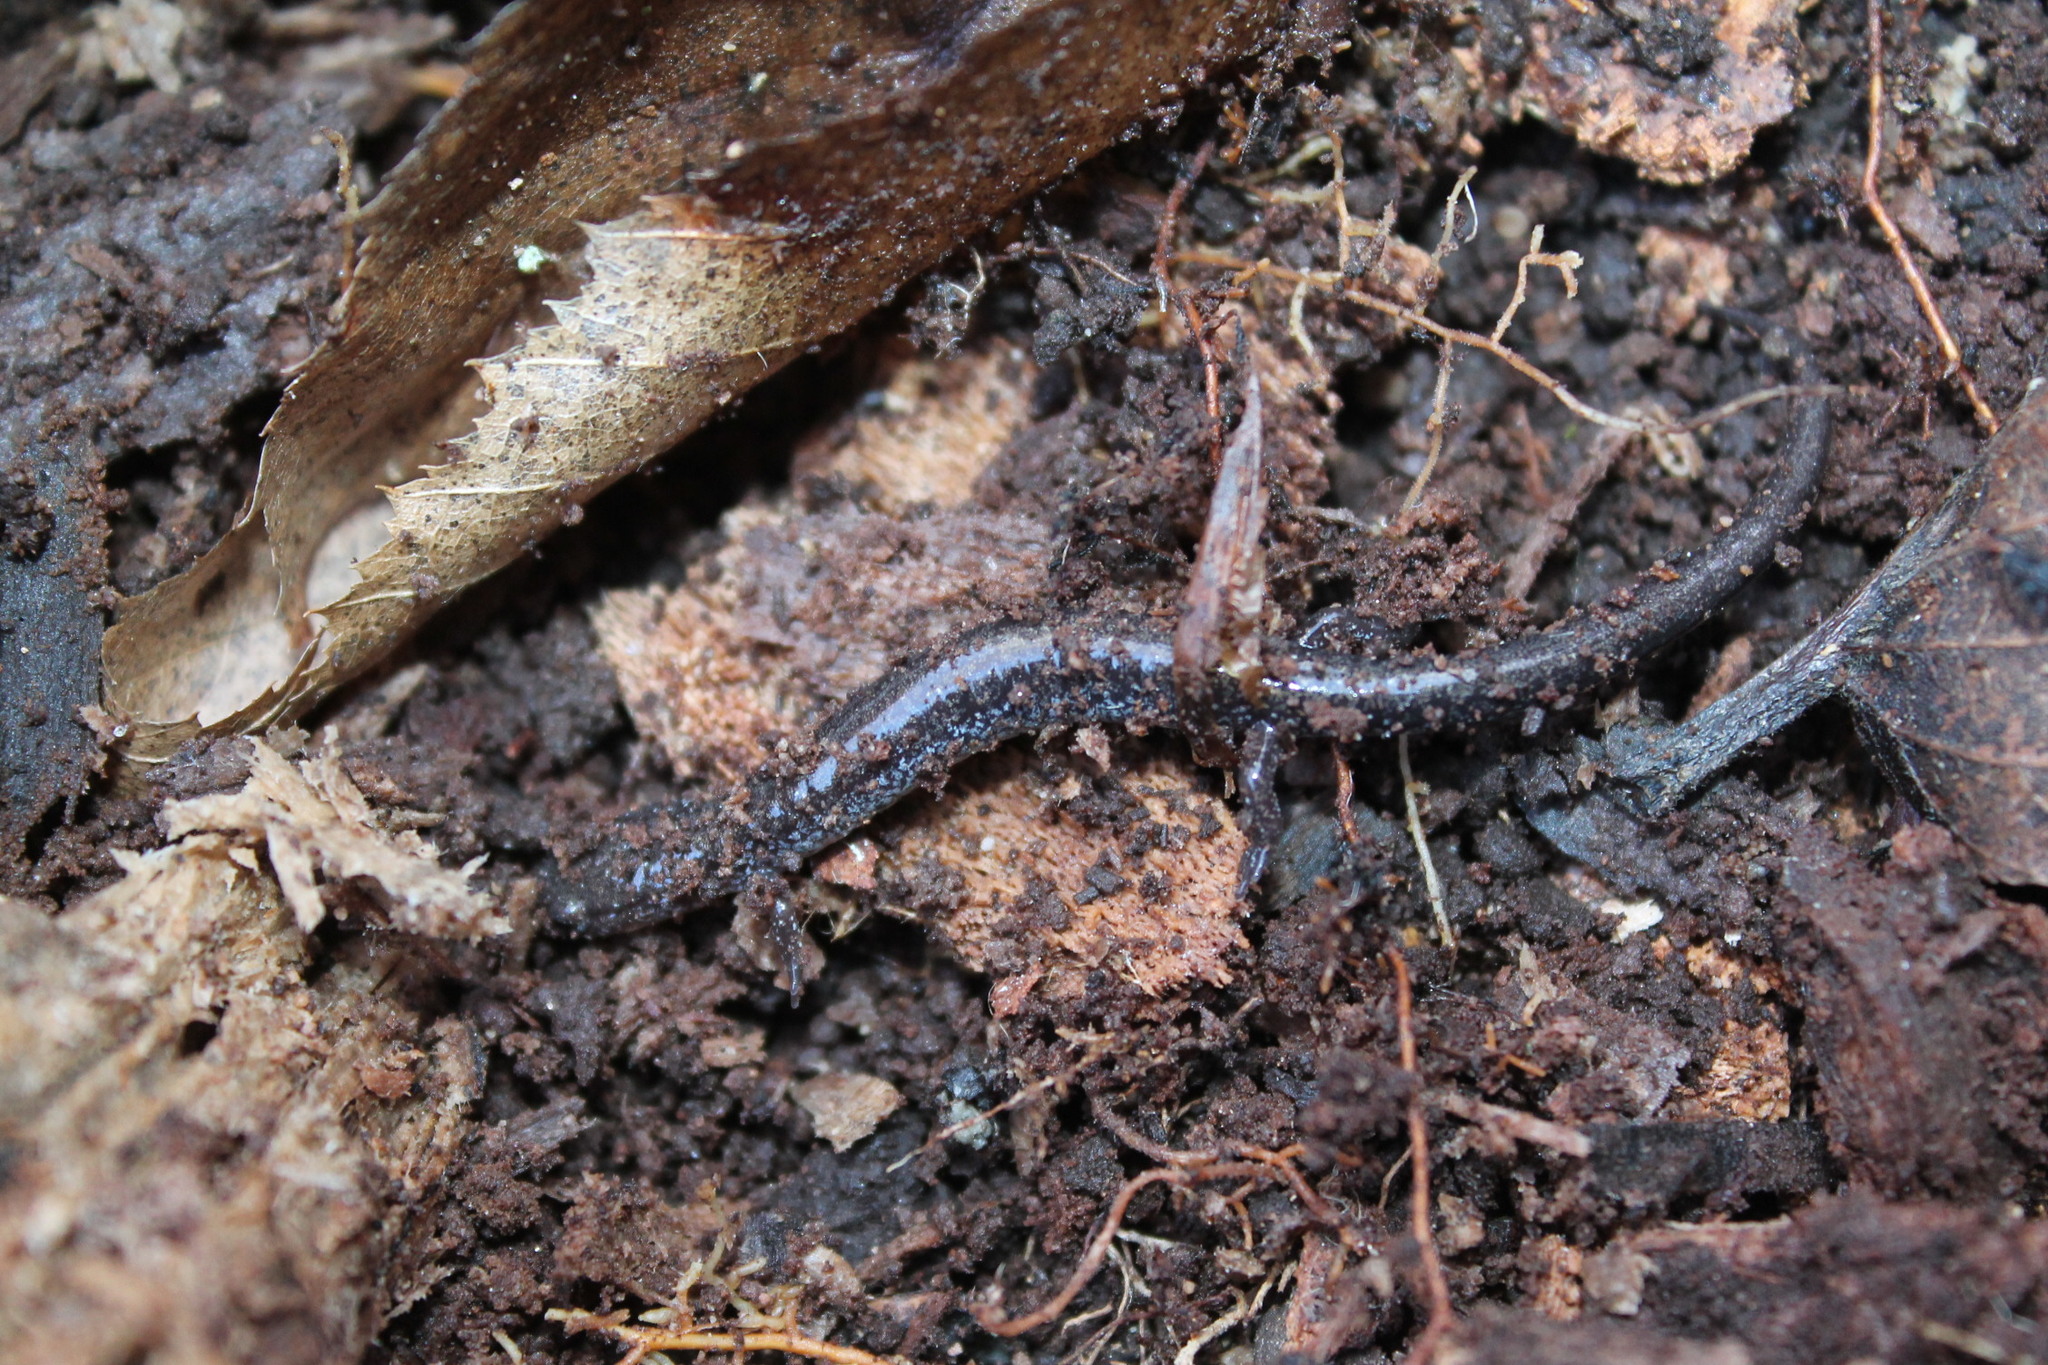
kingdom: Animalia
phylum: Chordata
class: Amphibia
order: Caudata
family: Plethodontidae
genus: Plethodon
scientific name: Plethodon cinereus
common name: Redback salamander
